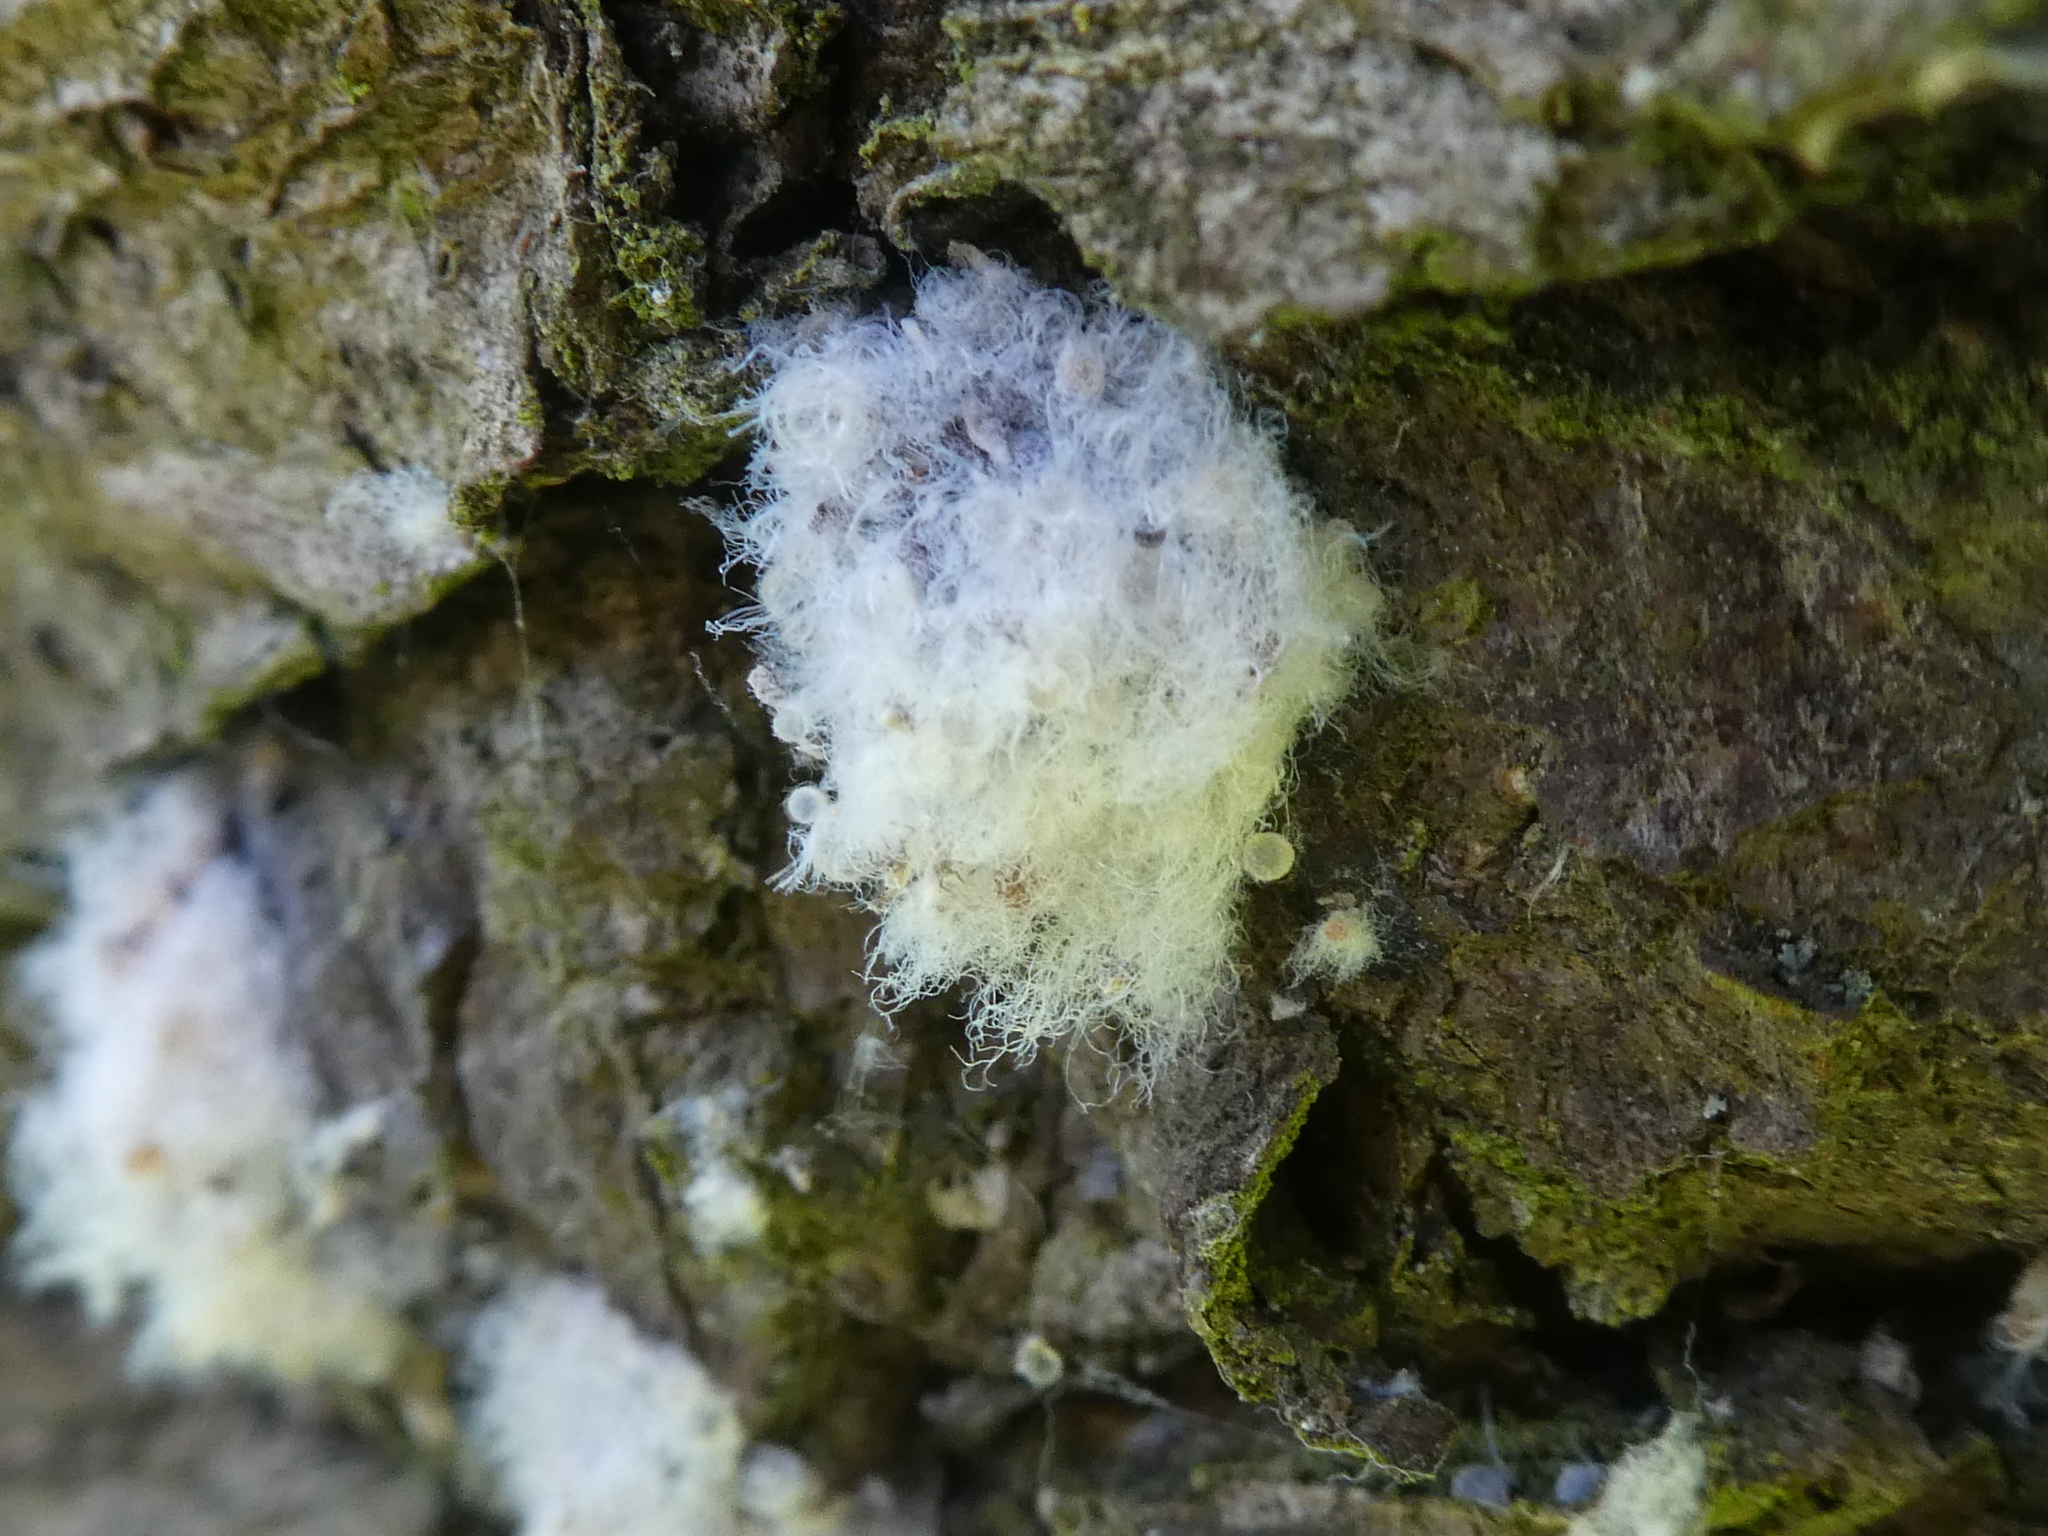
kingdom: Animalia
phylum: Arthropoda
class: Insecta
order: Hemiptera
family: Aphididae
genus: Eriosoma
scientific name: Eriosoma lanigerum
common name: Woolly apple aphid
